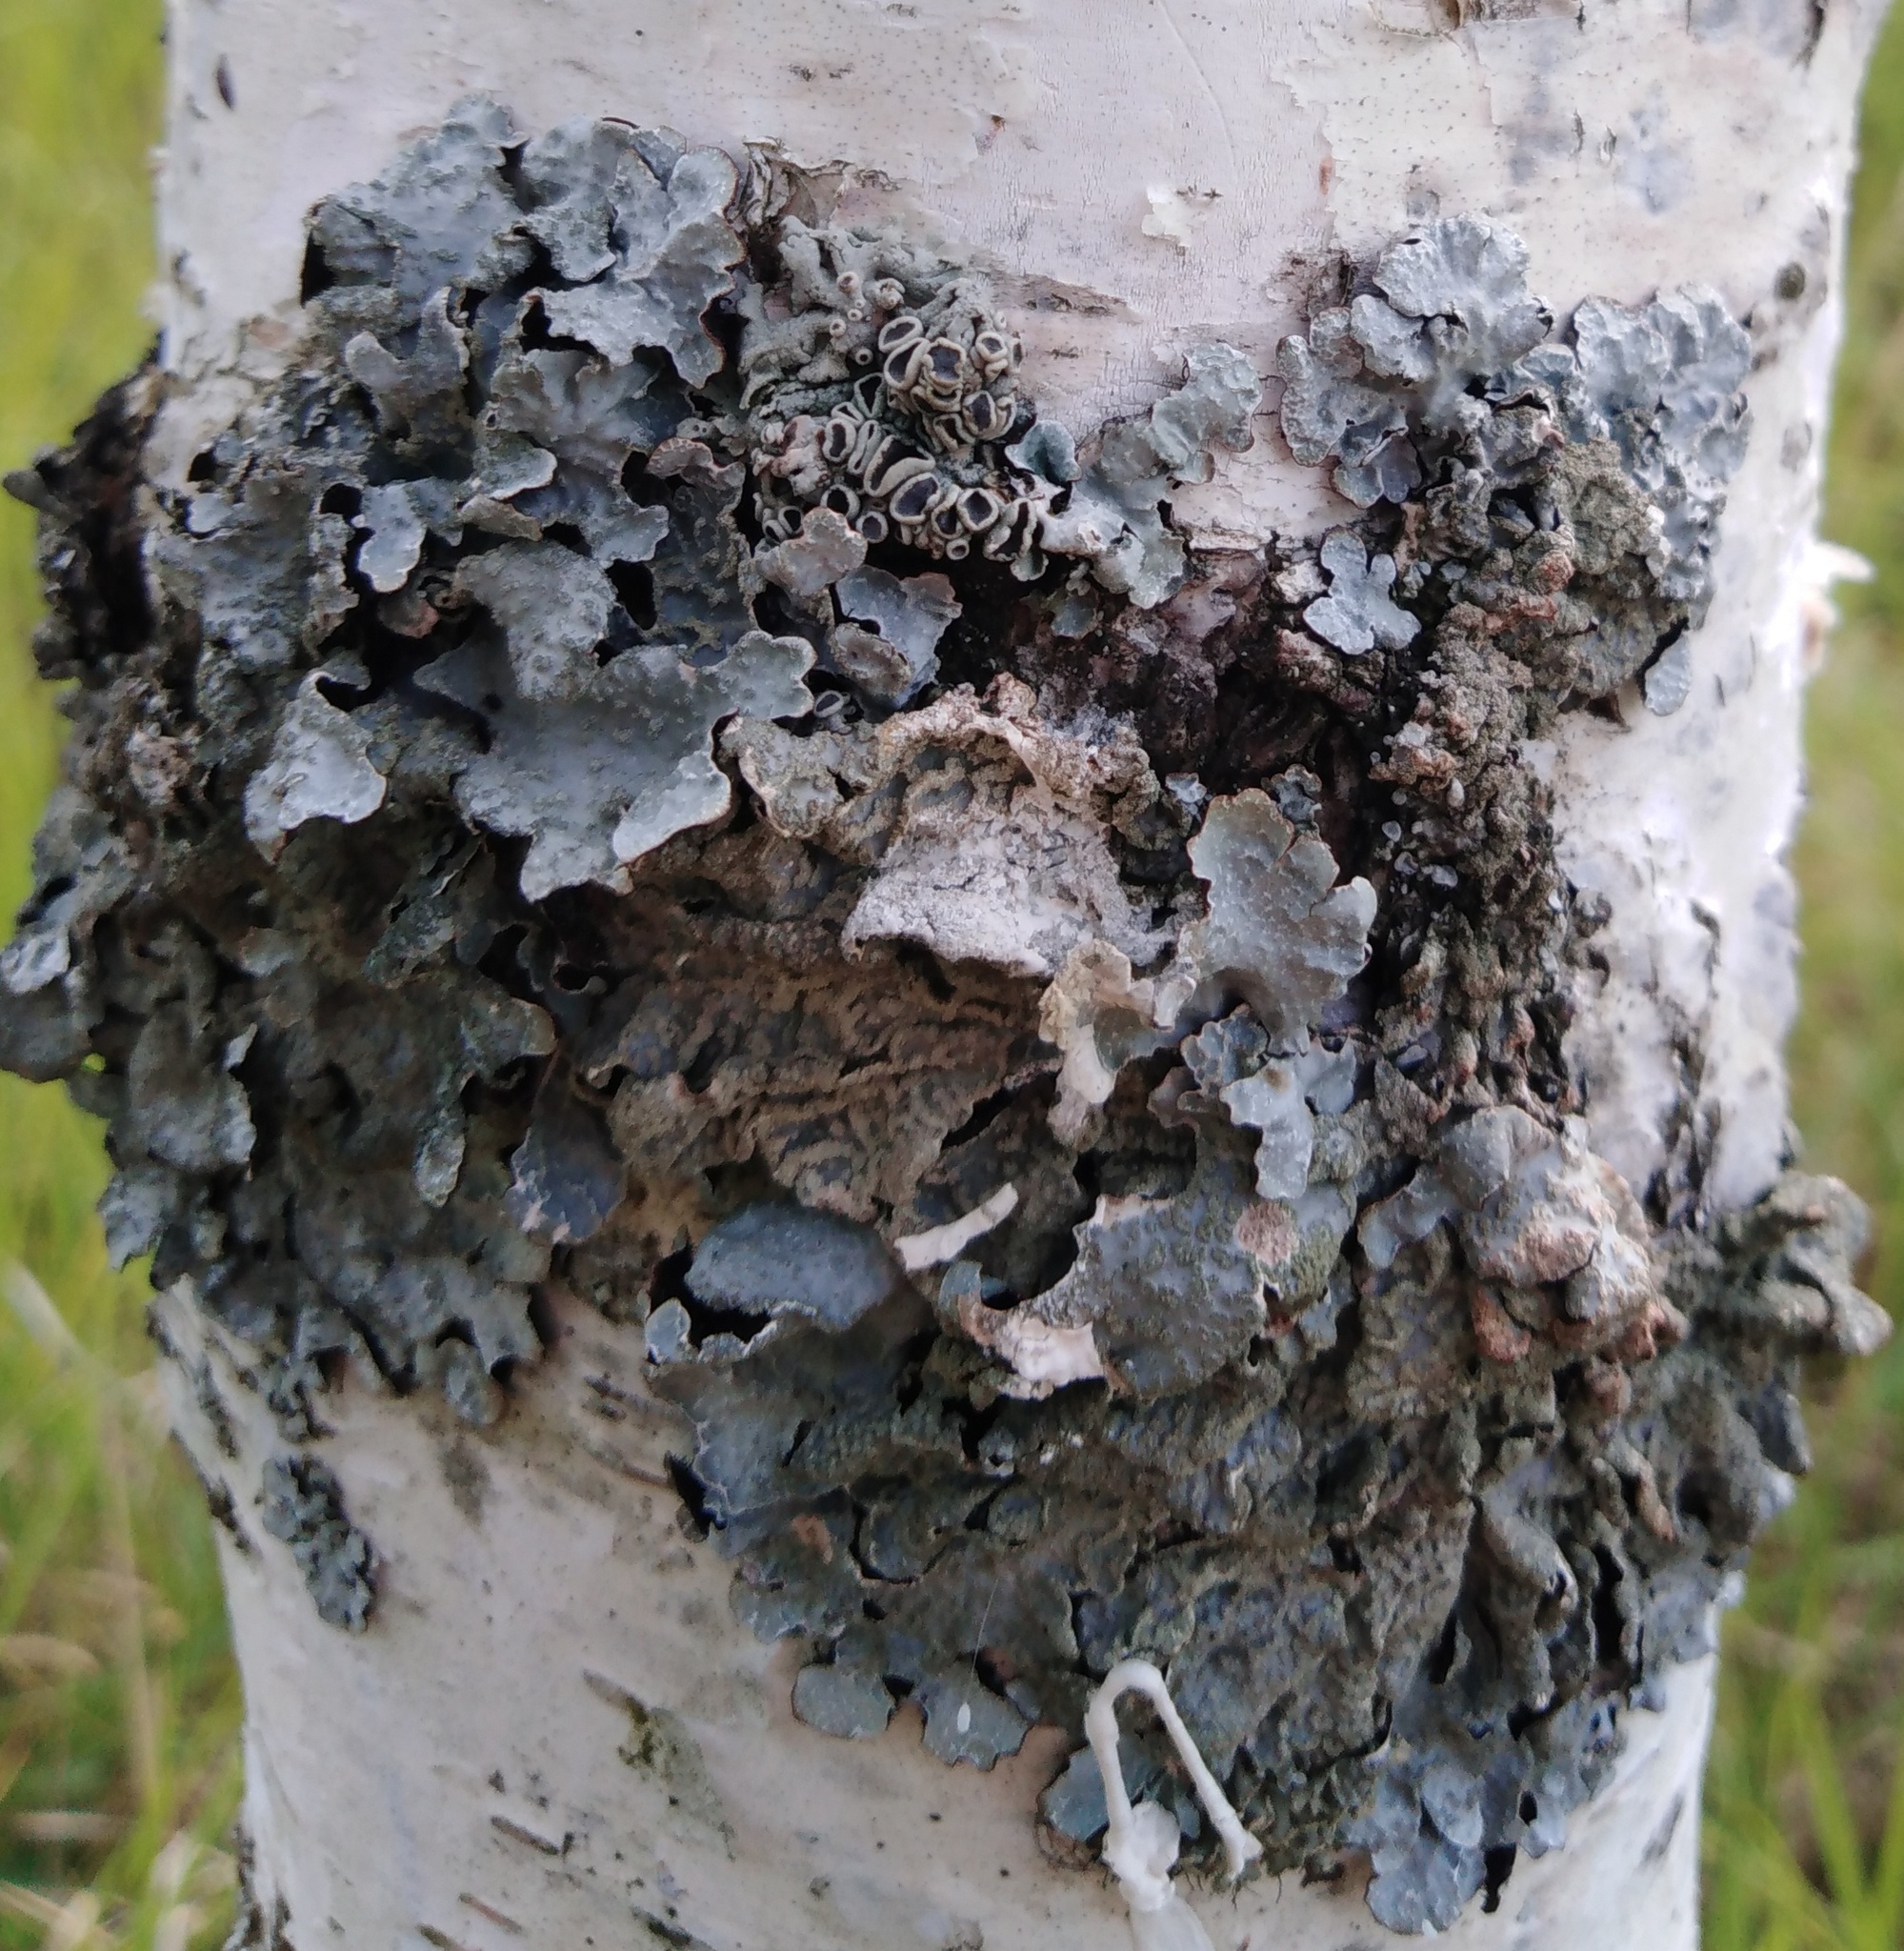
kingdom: Fungi
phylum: Ascomycota
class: Lecanoromycetes
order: Lecanorales
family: Parmeliaceae
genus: Parmelia
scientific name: Parmelia sulcata
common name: Netted shield lichen
